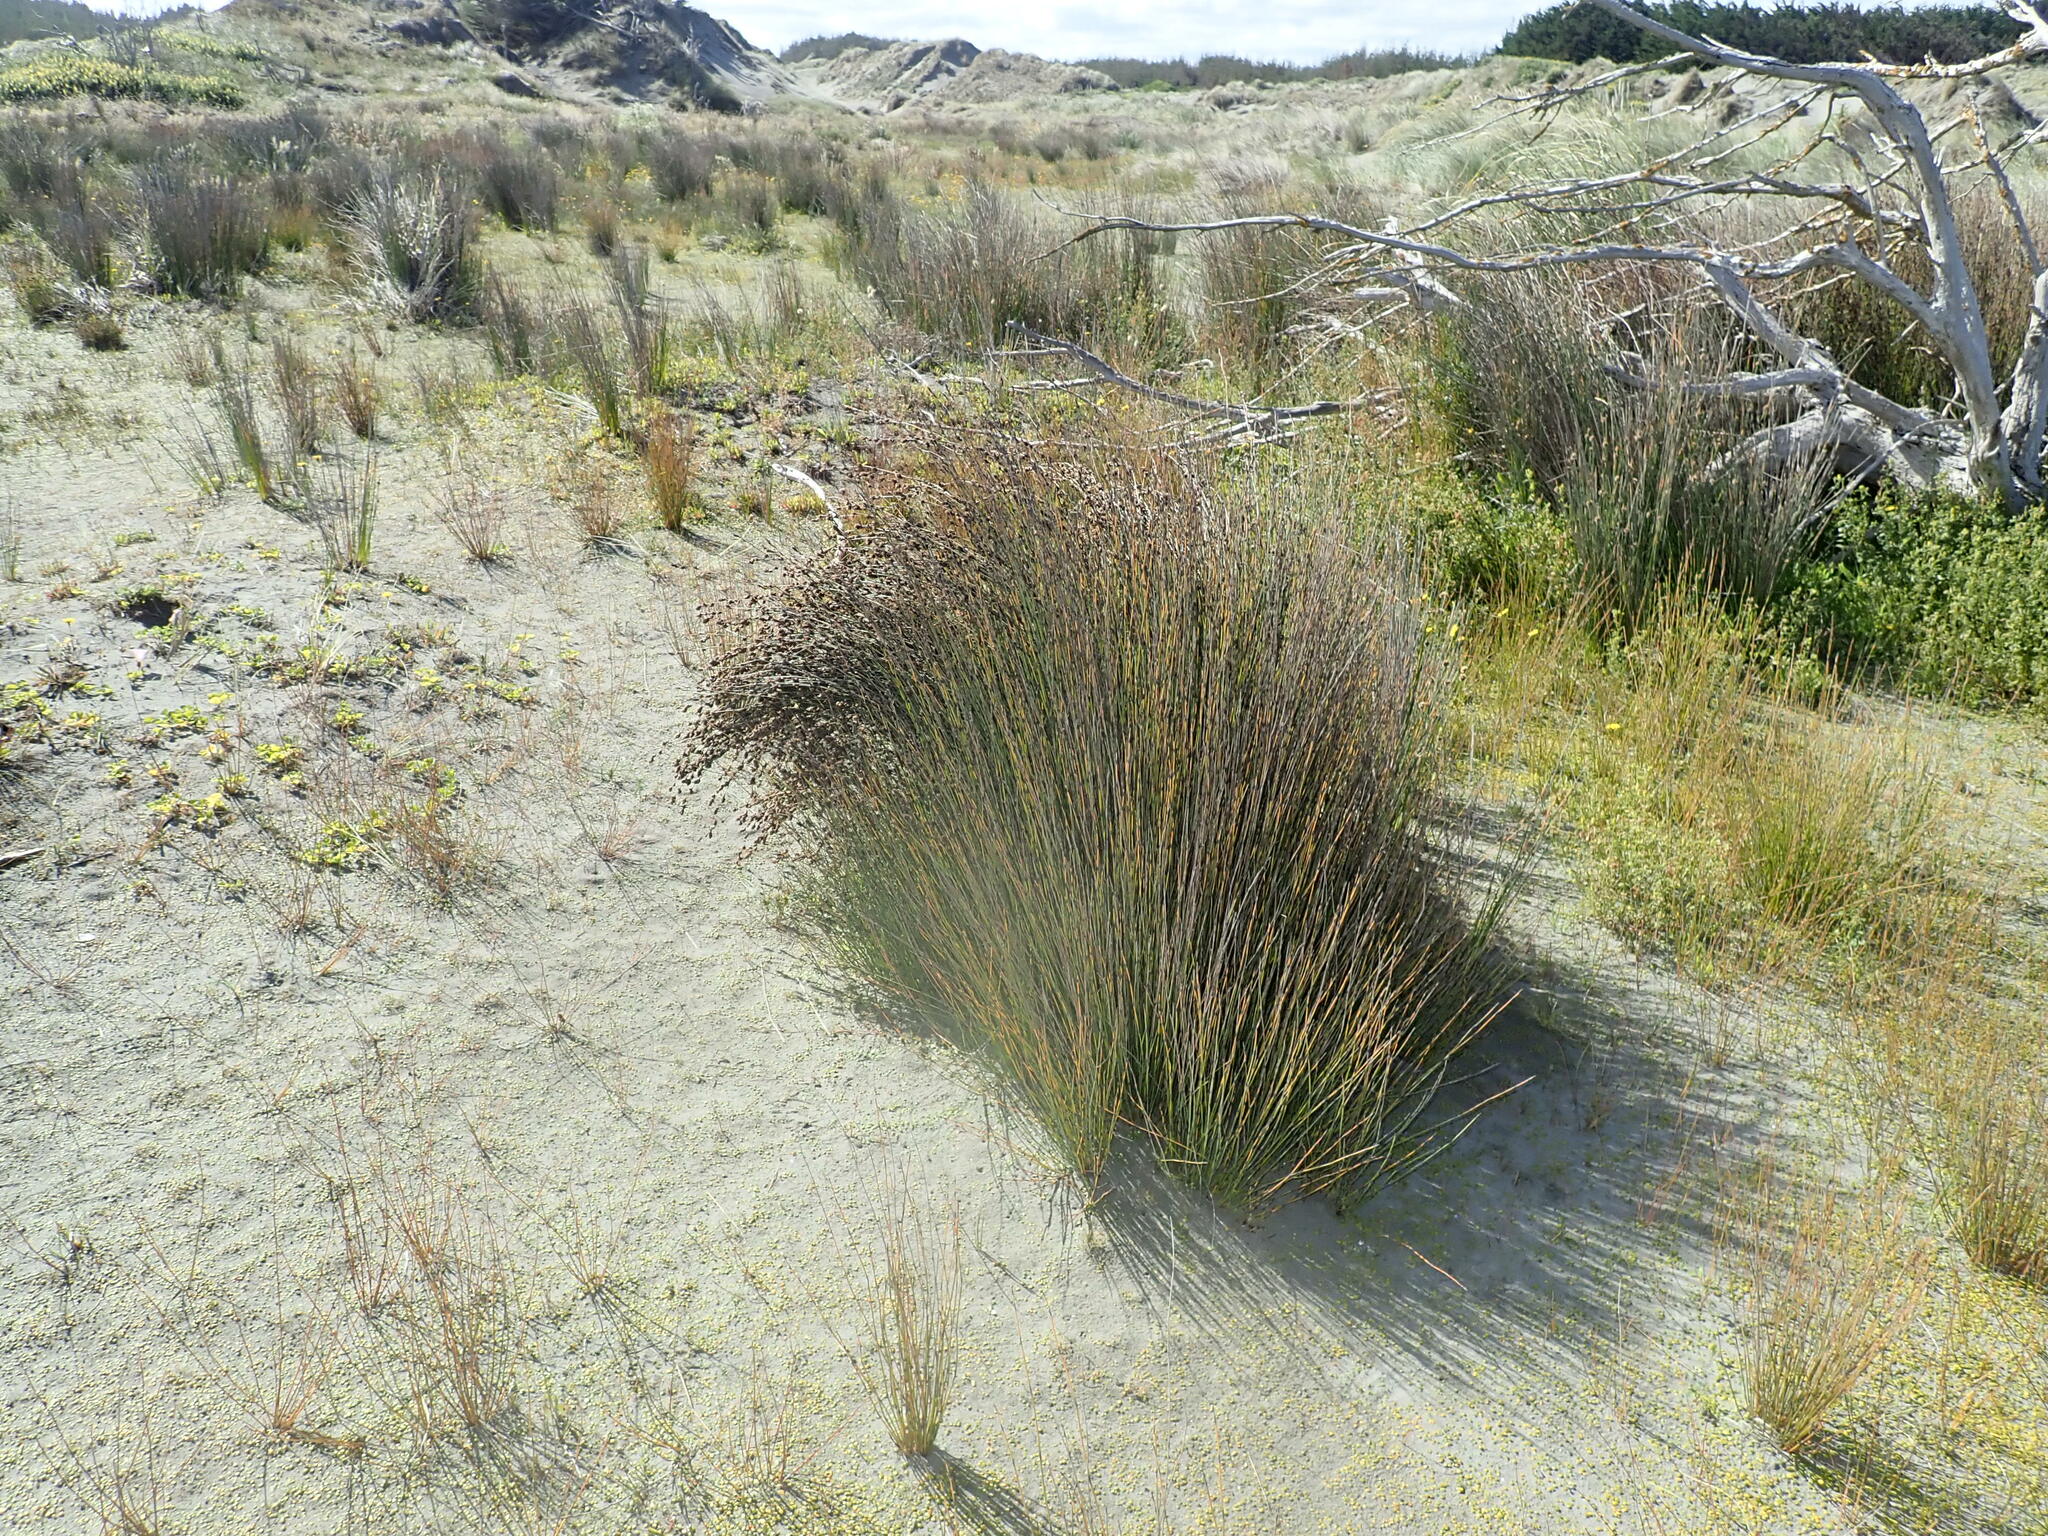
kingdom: Plantae
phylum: Tracheophyta
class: Liliopsida
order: Poales
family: Restionaceae
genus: Apodasmia
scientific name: Apodasmia similis
